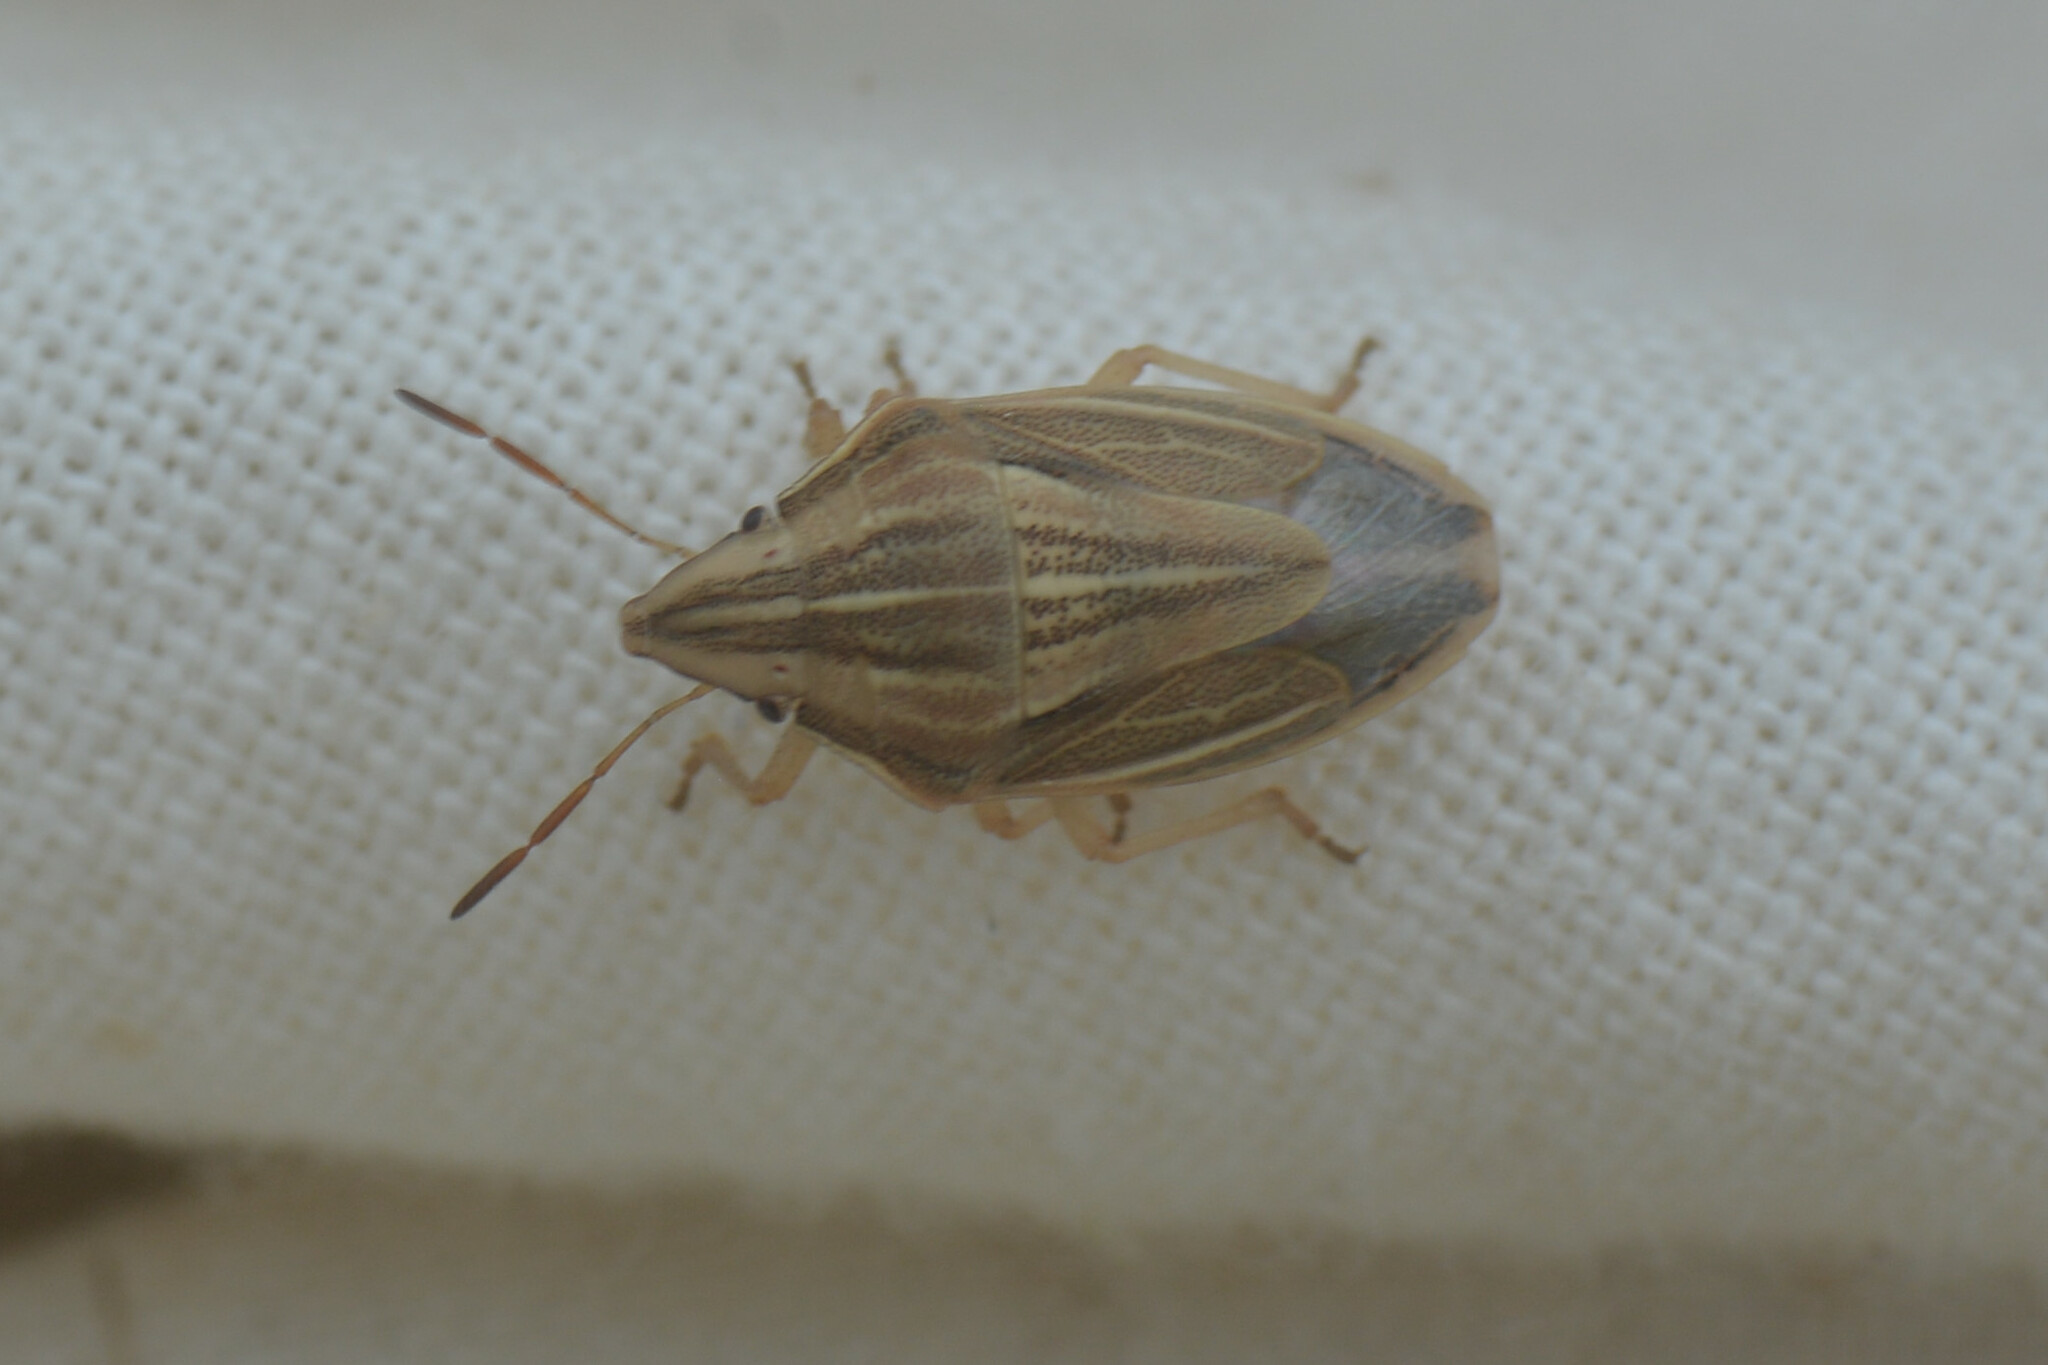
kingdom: Animalia
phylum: Arthropoda
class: Insecta
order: Hemiptera
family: Pentatomidae
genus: Aelia
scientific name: Aelia acuminata
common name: Bishop's mitre
